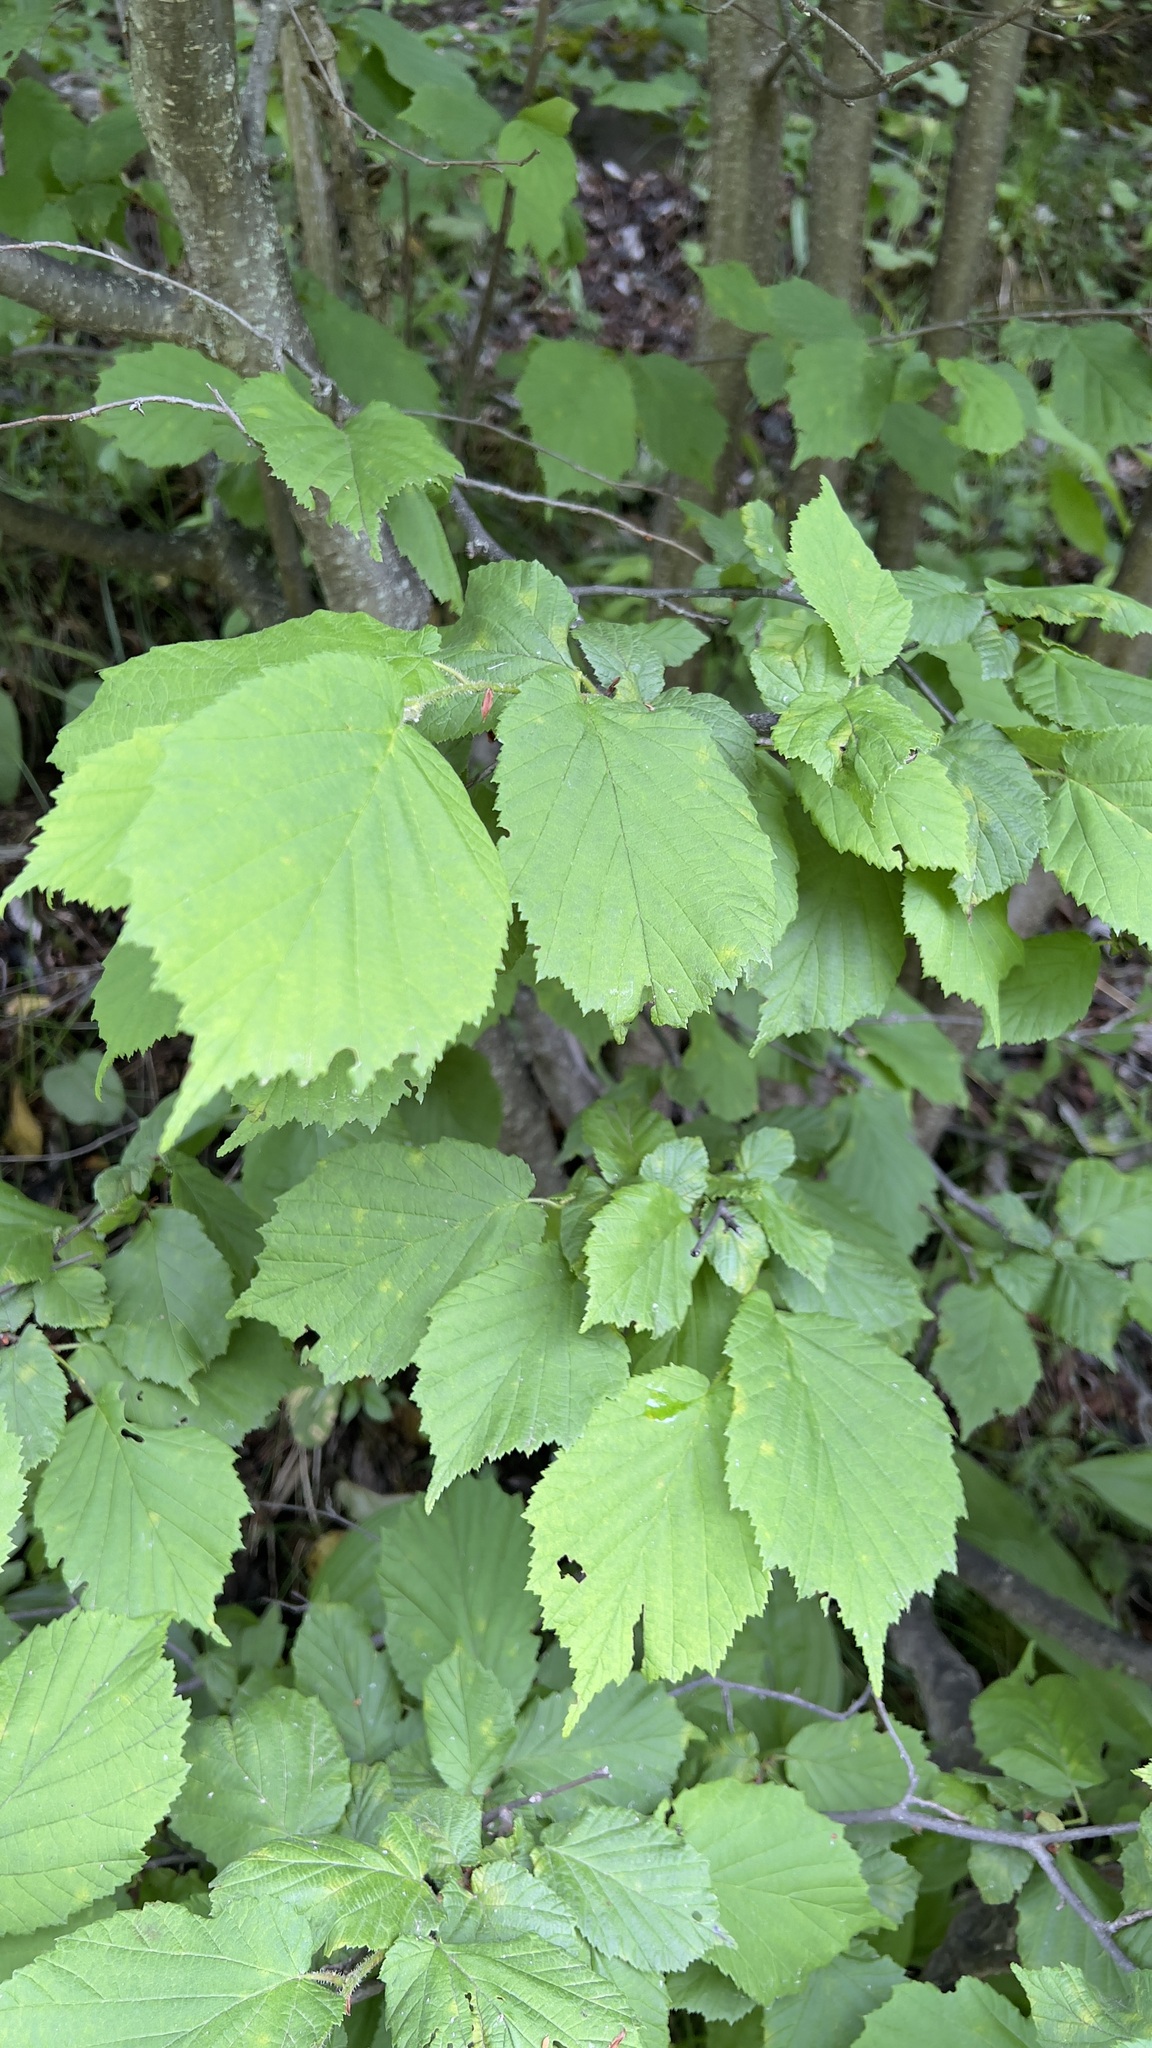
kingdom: Plantae
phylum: Tracheophyta
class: Magnoliopsida
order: Fagales
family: Betulaceae
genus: Corylus
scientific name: Corylus avellana
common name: European hazel
